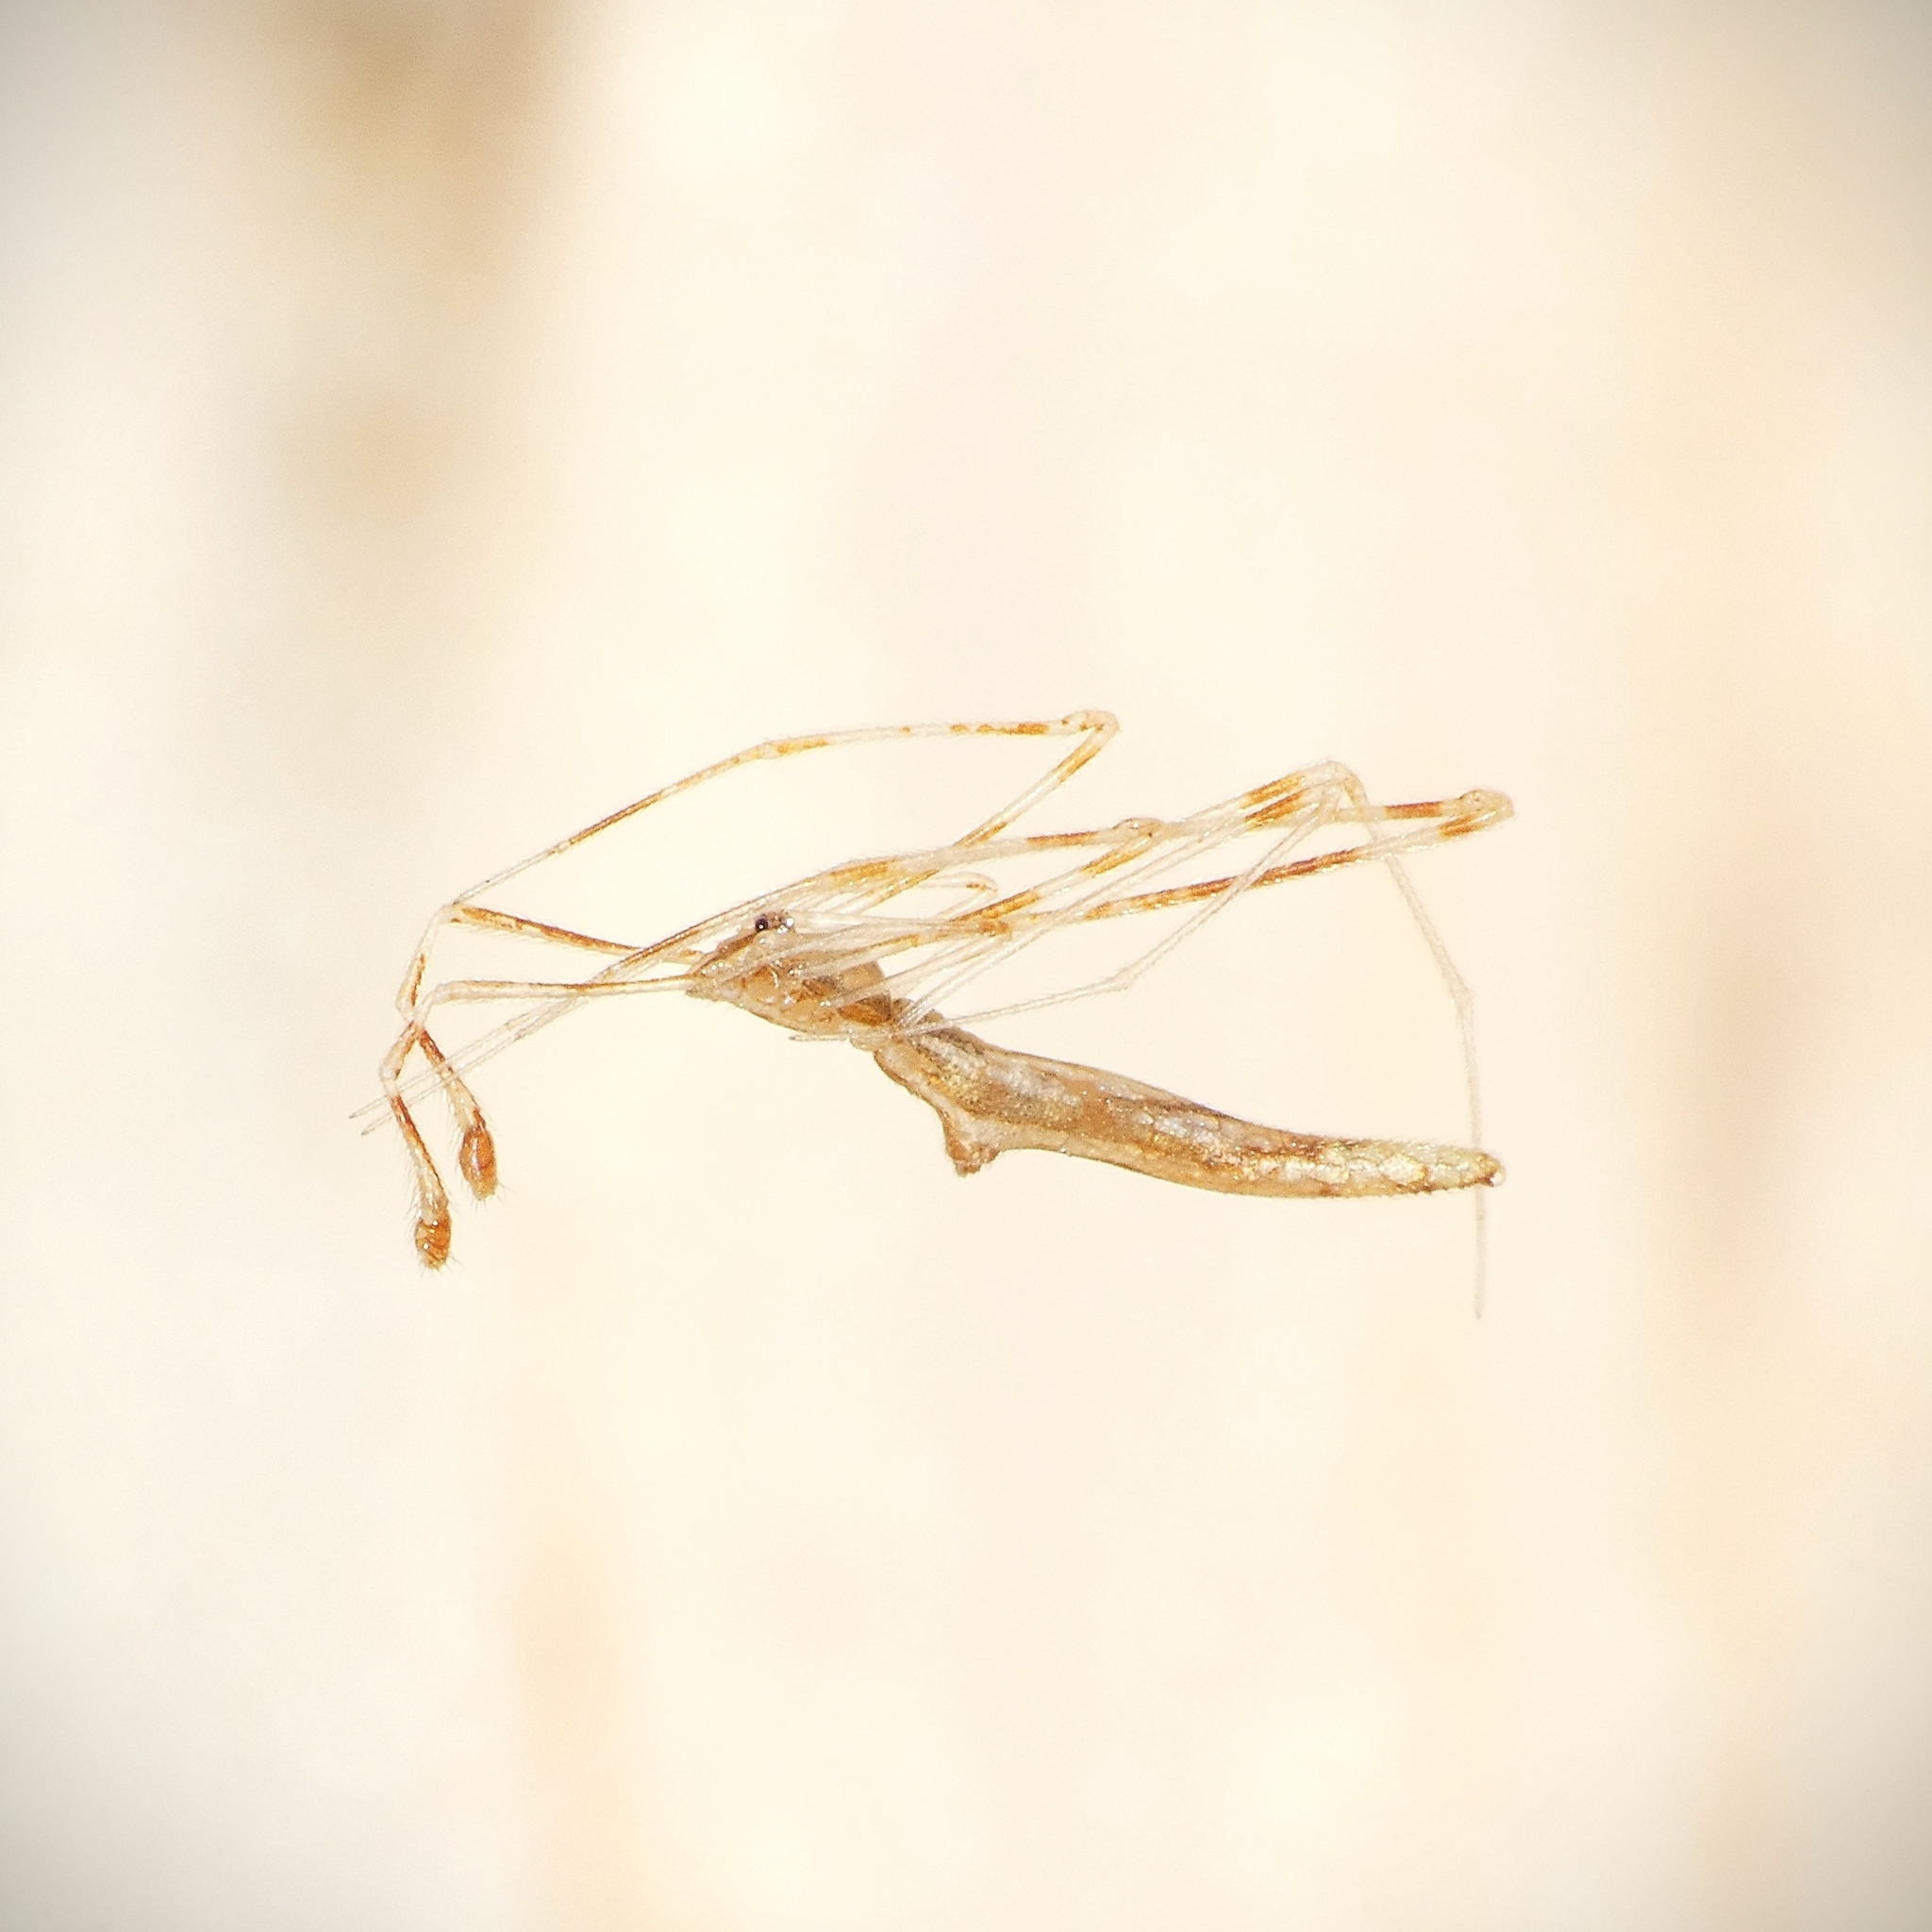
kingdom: Animalia
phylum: Arthropoda
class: Arachnida
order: Araneae
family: Theridiidae
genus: Rhomphaea
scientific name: Rhomphaea affinis
